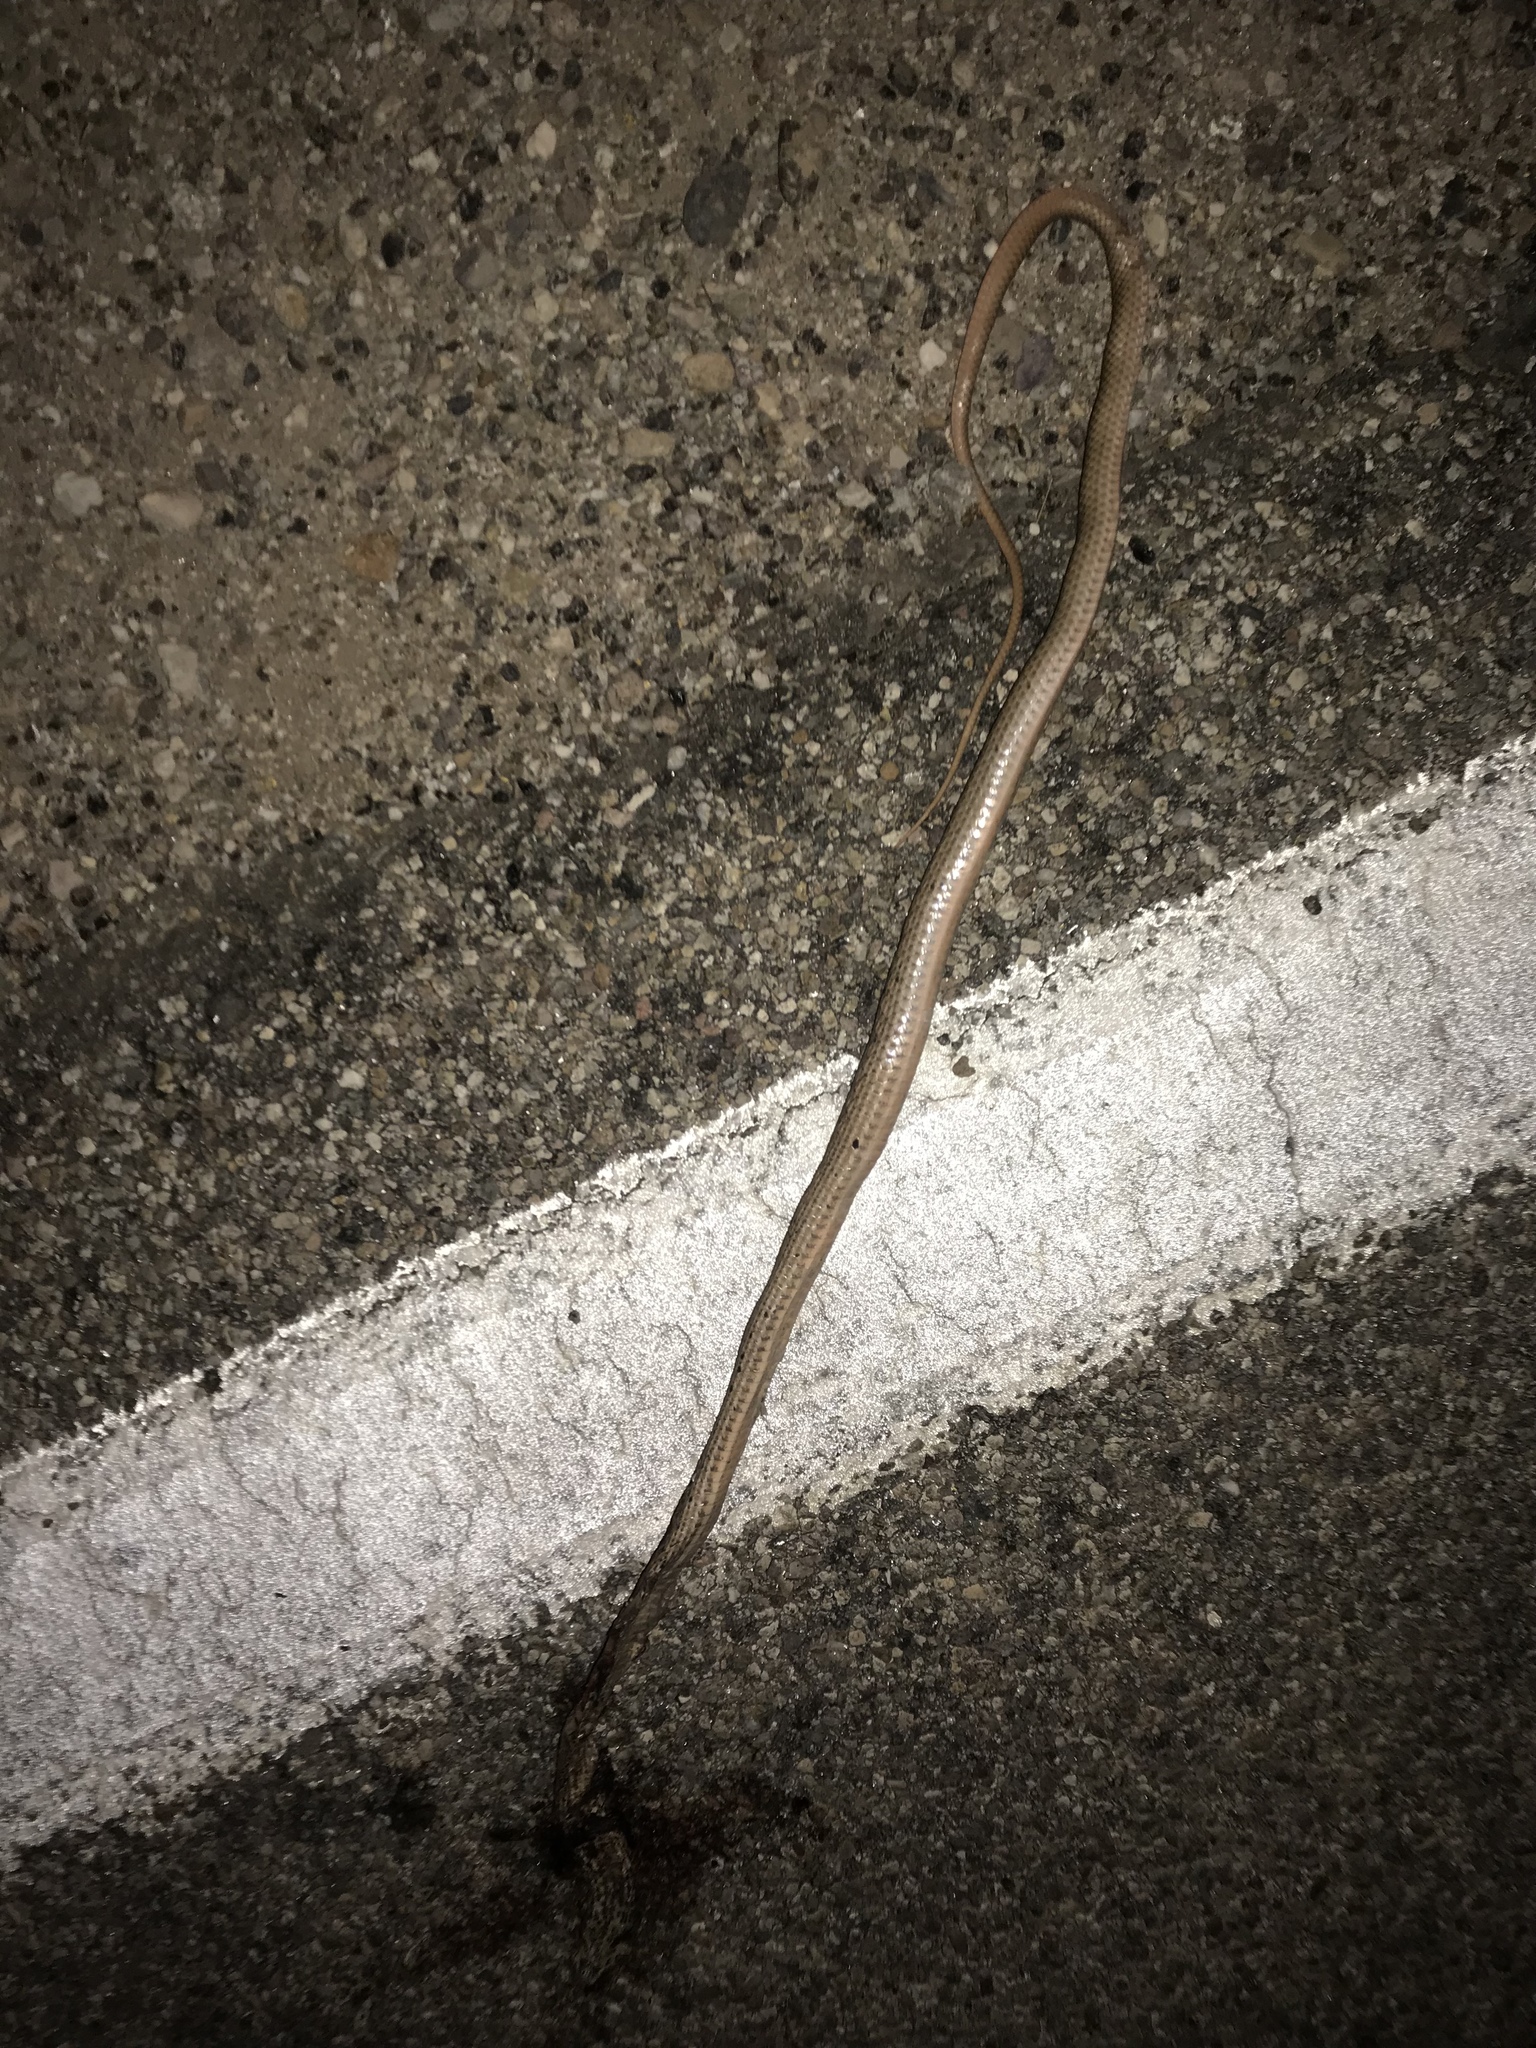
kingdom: Animalia
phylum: Chordata
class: Squamata
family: Colubridae
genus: Masticophis
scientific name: Masticophis flagellum
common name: Coachwhip
